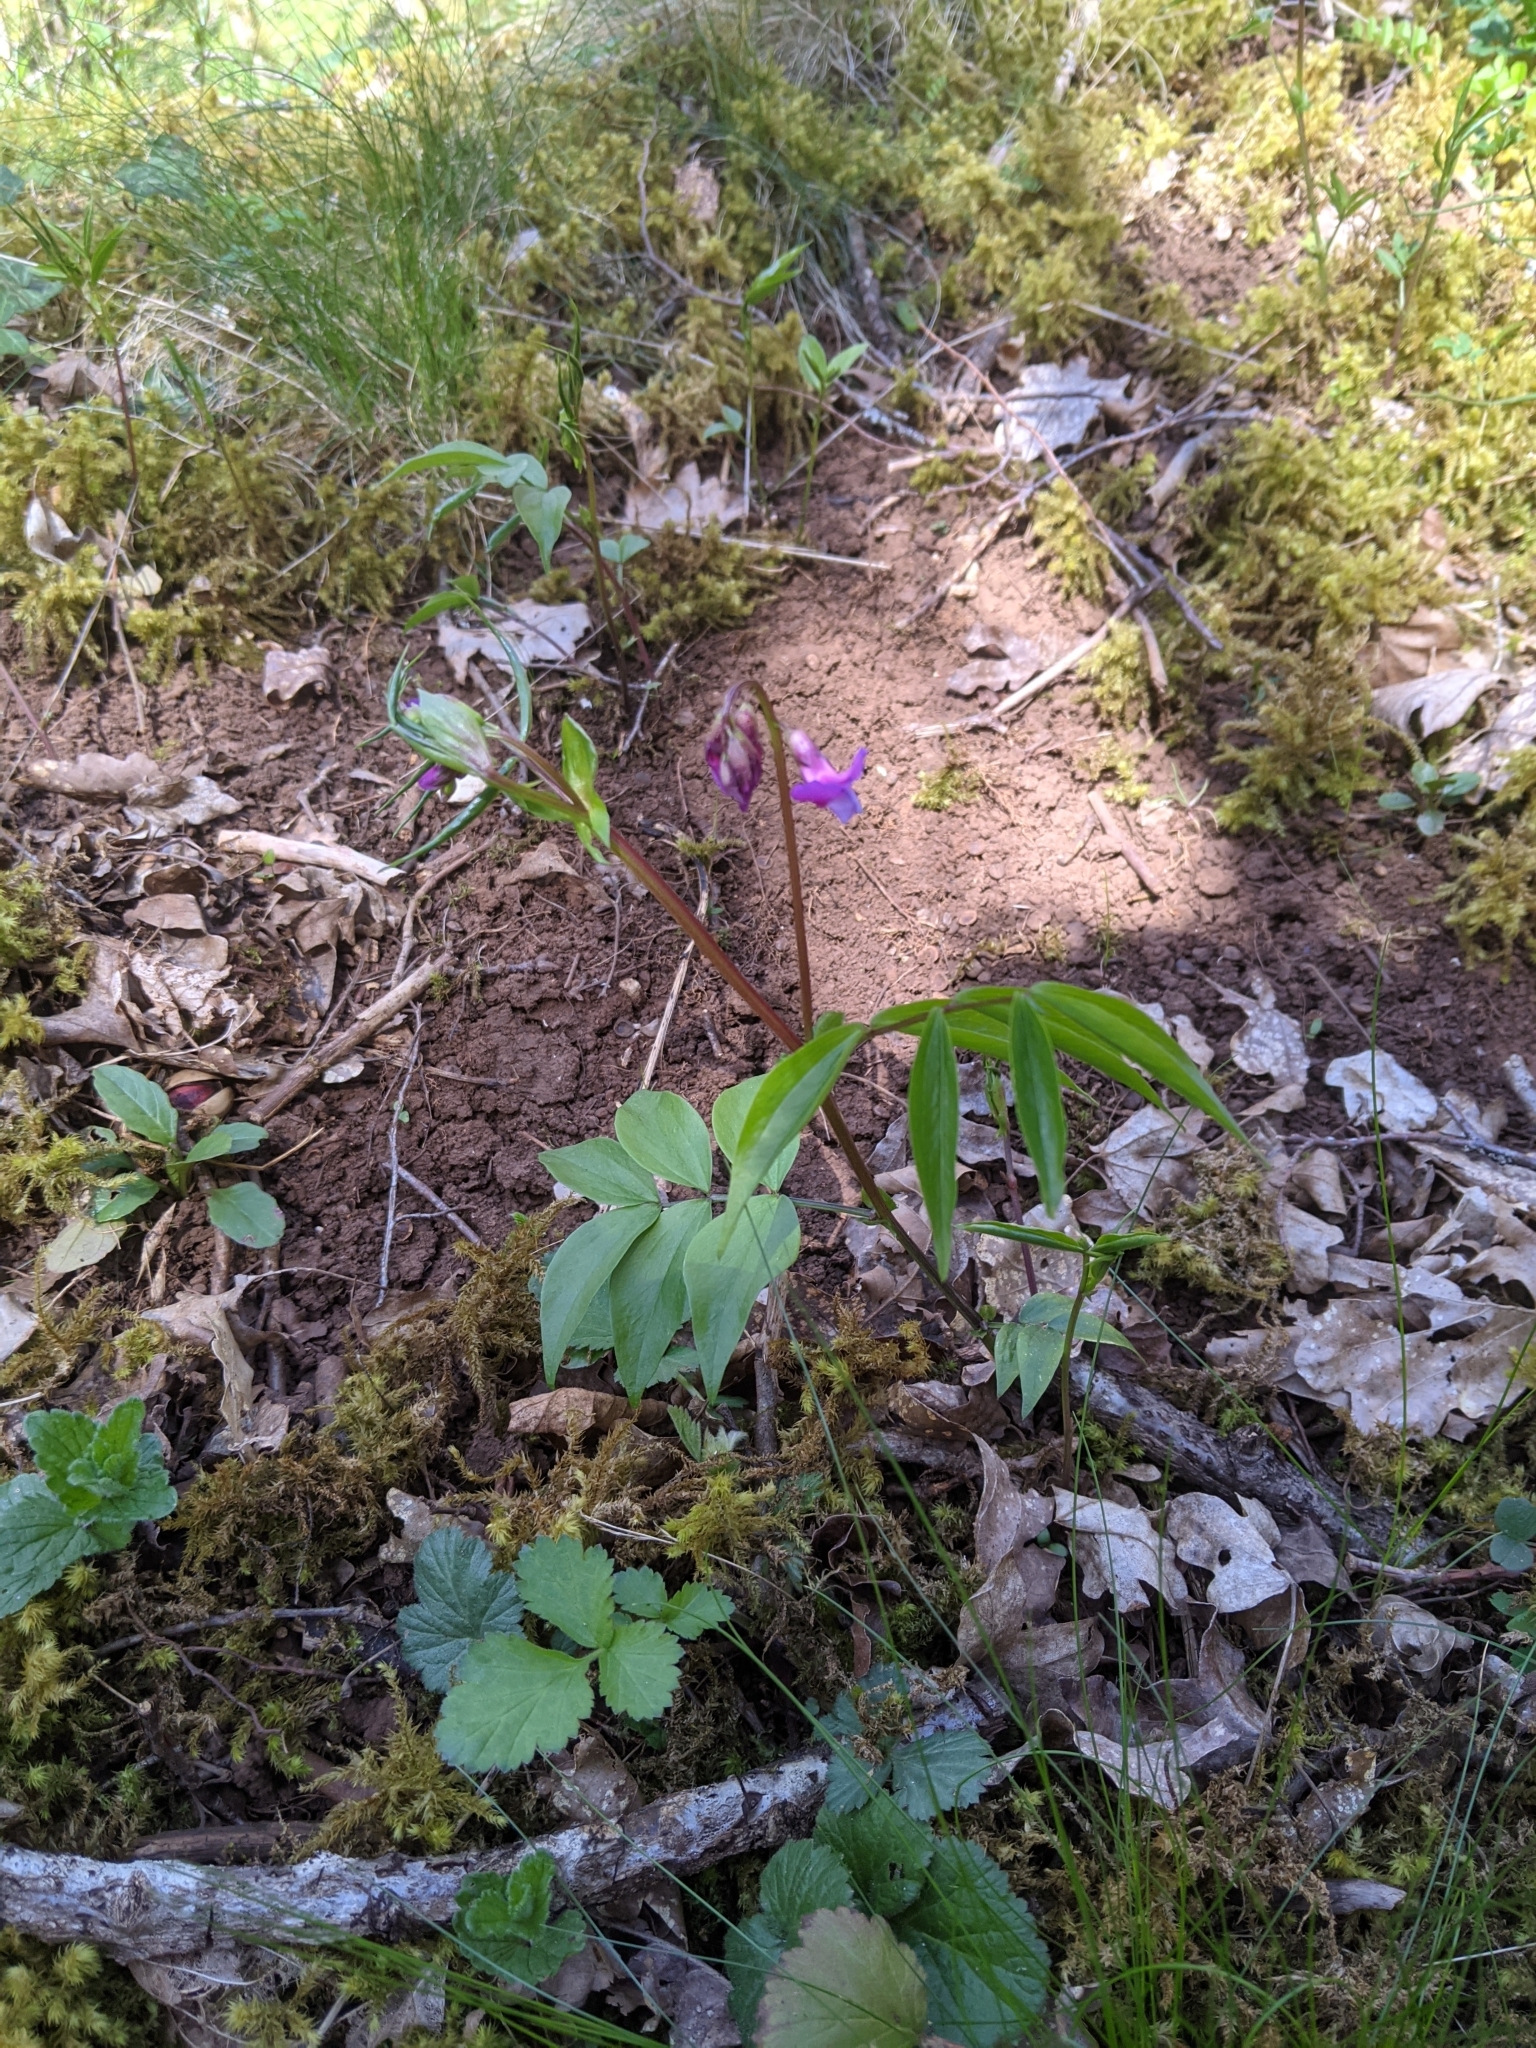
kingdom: Plantae
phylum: Tracheophyta
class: Magnoliopsida
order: Fabales
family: Fabaceae
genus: Lathyrus
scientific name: Lathyrus vernus
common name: Spring pea
